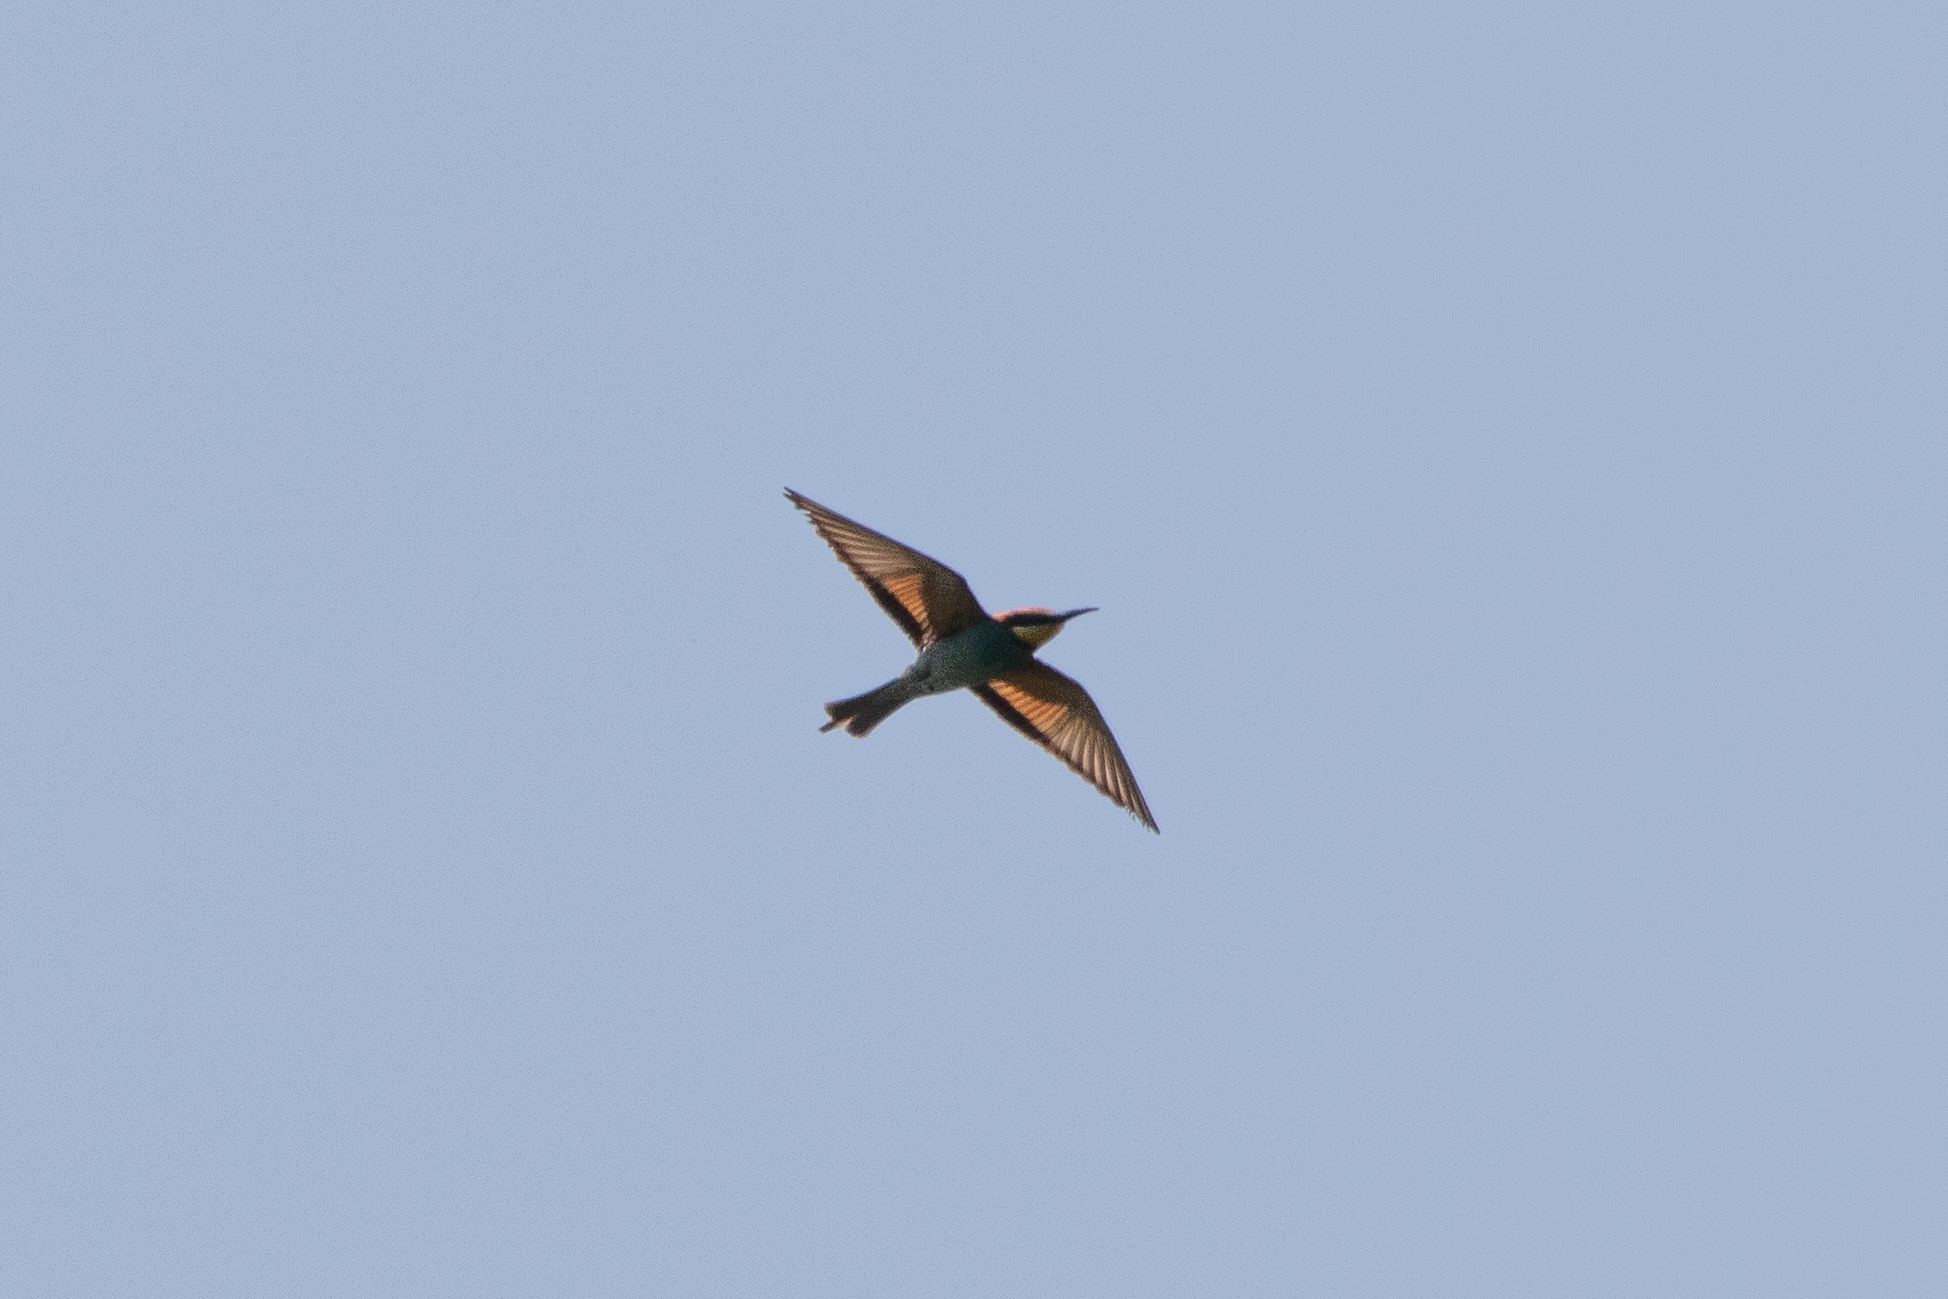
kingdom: Animalia
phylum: Chordata
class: Aves
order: Coraciiformes
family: Meropidae
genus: Merops
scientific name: Merops apiaster
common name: European bee-eater
